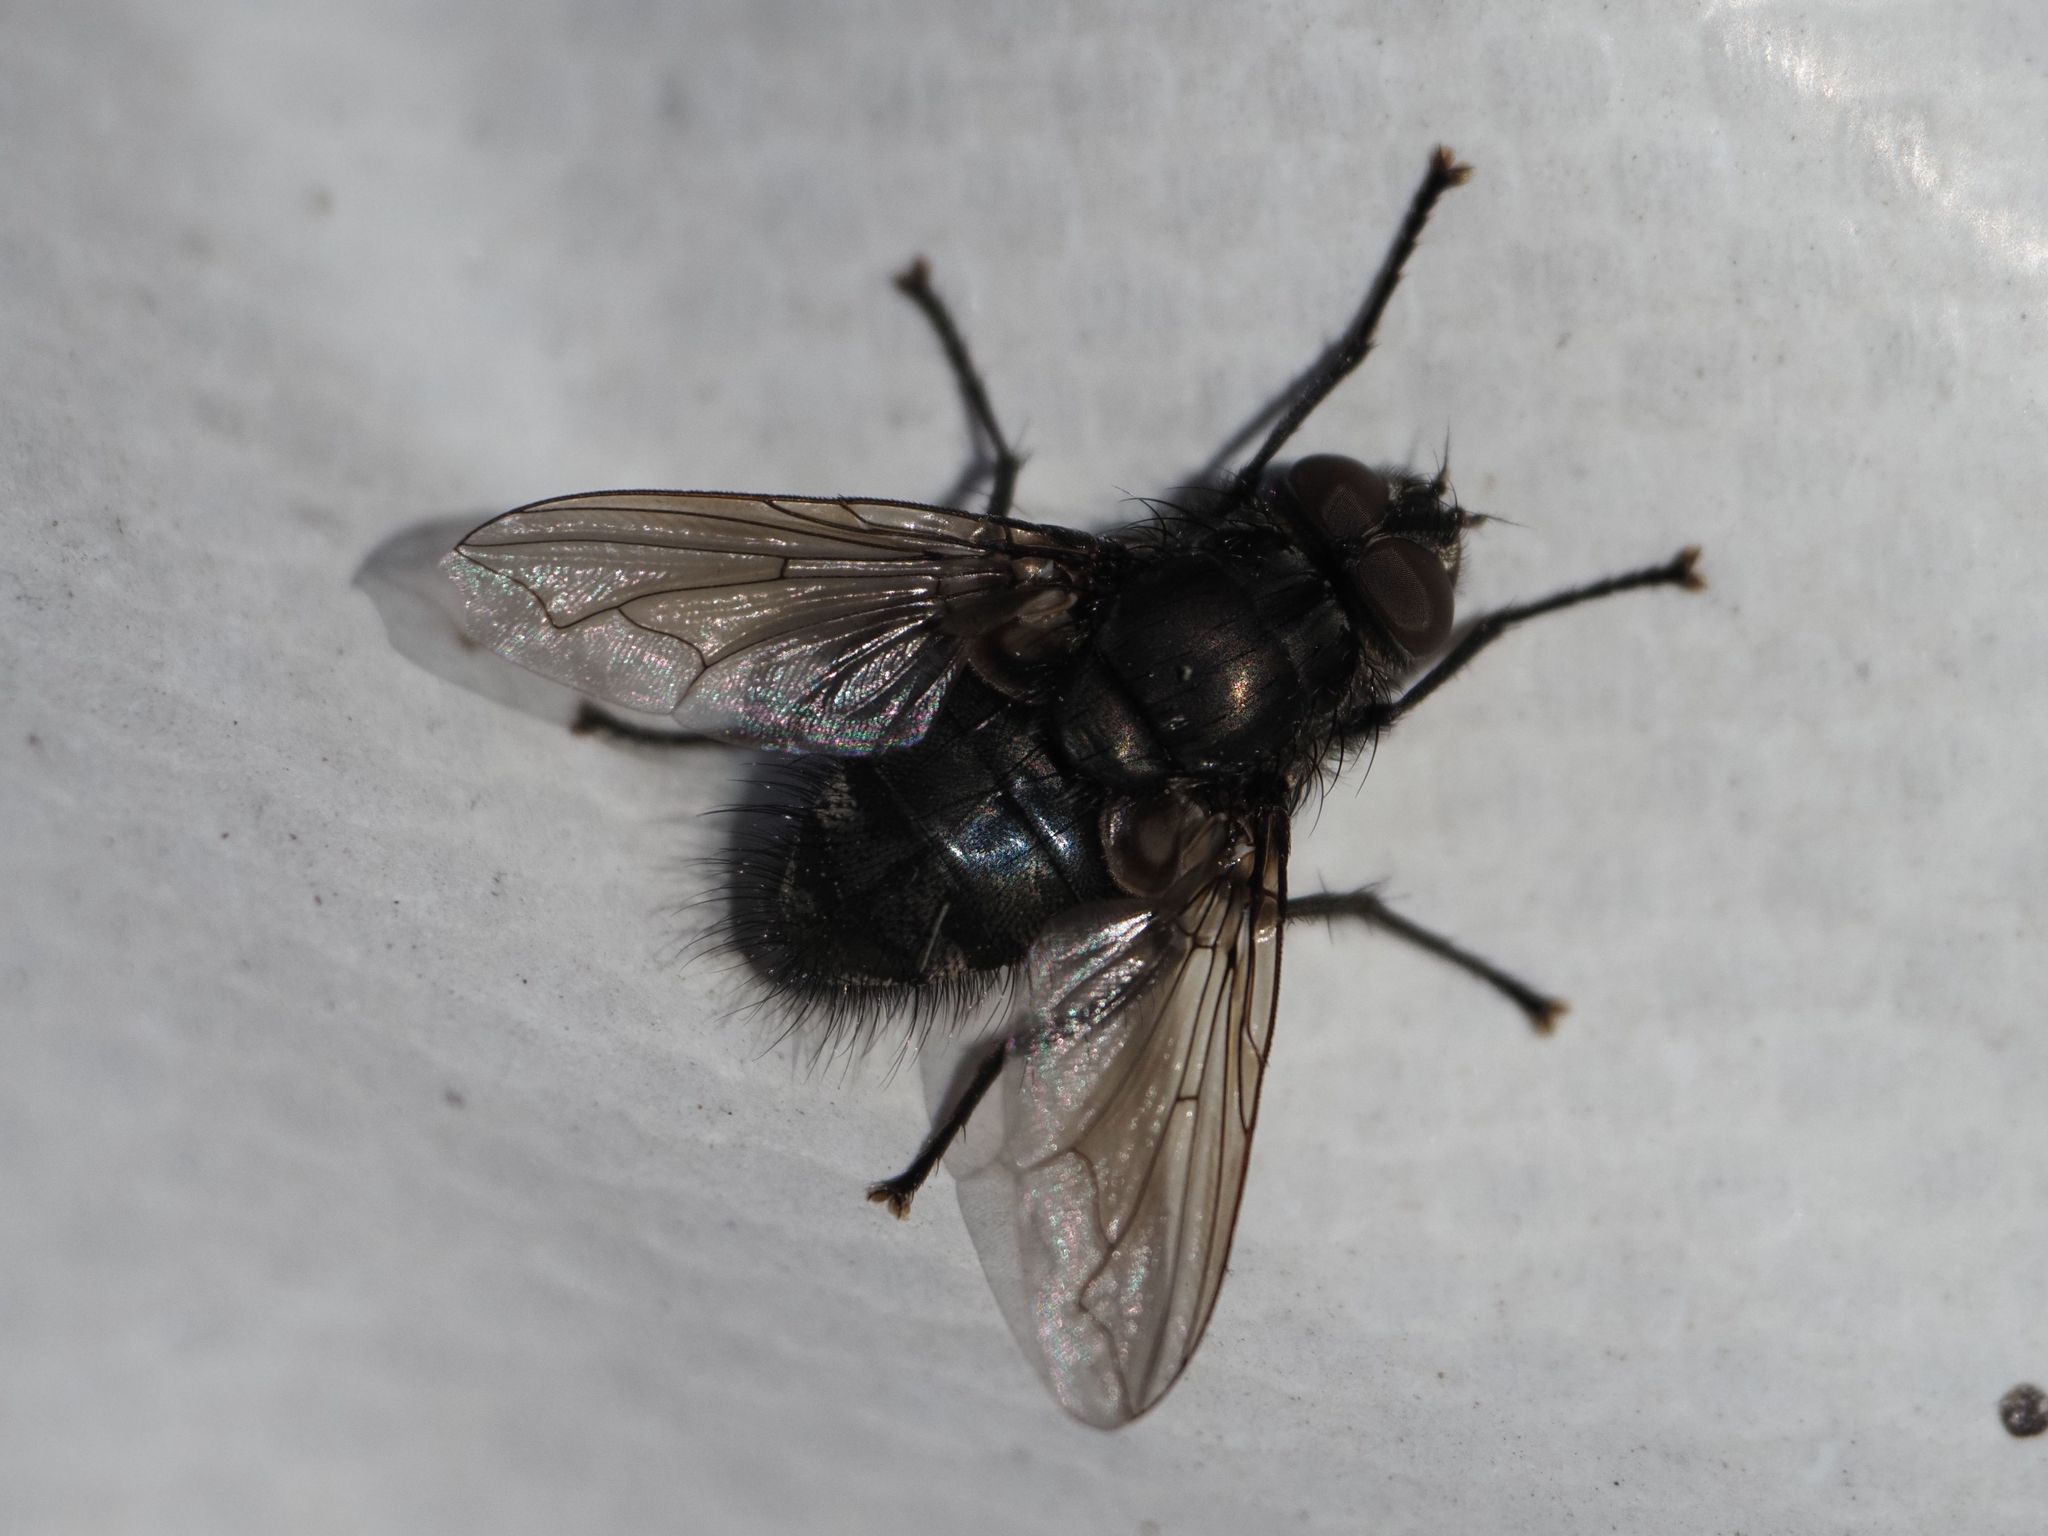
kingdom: Animalia
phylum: Arthropoda
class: Insecta
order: Diptera
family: Polleniidae
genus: Pollenia
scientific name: Pollenia vagabunda
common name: Vagabund cluster fly
